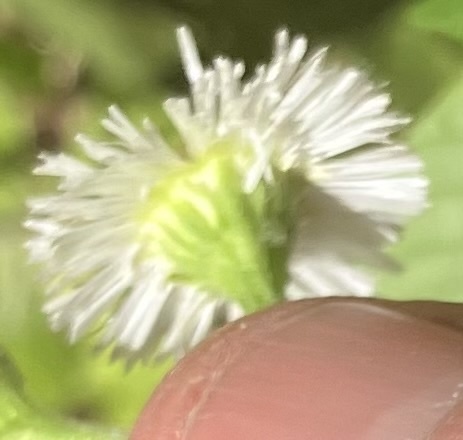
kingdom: Plantae
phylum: Tracheophyta
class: Magnoliopsida
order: Asterales
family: Asteraceae
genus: Erigeron
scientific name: Erigeron philadelphicus
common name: Robin's-plantain
